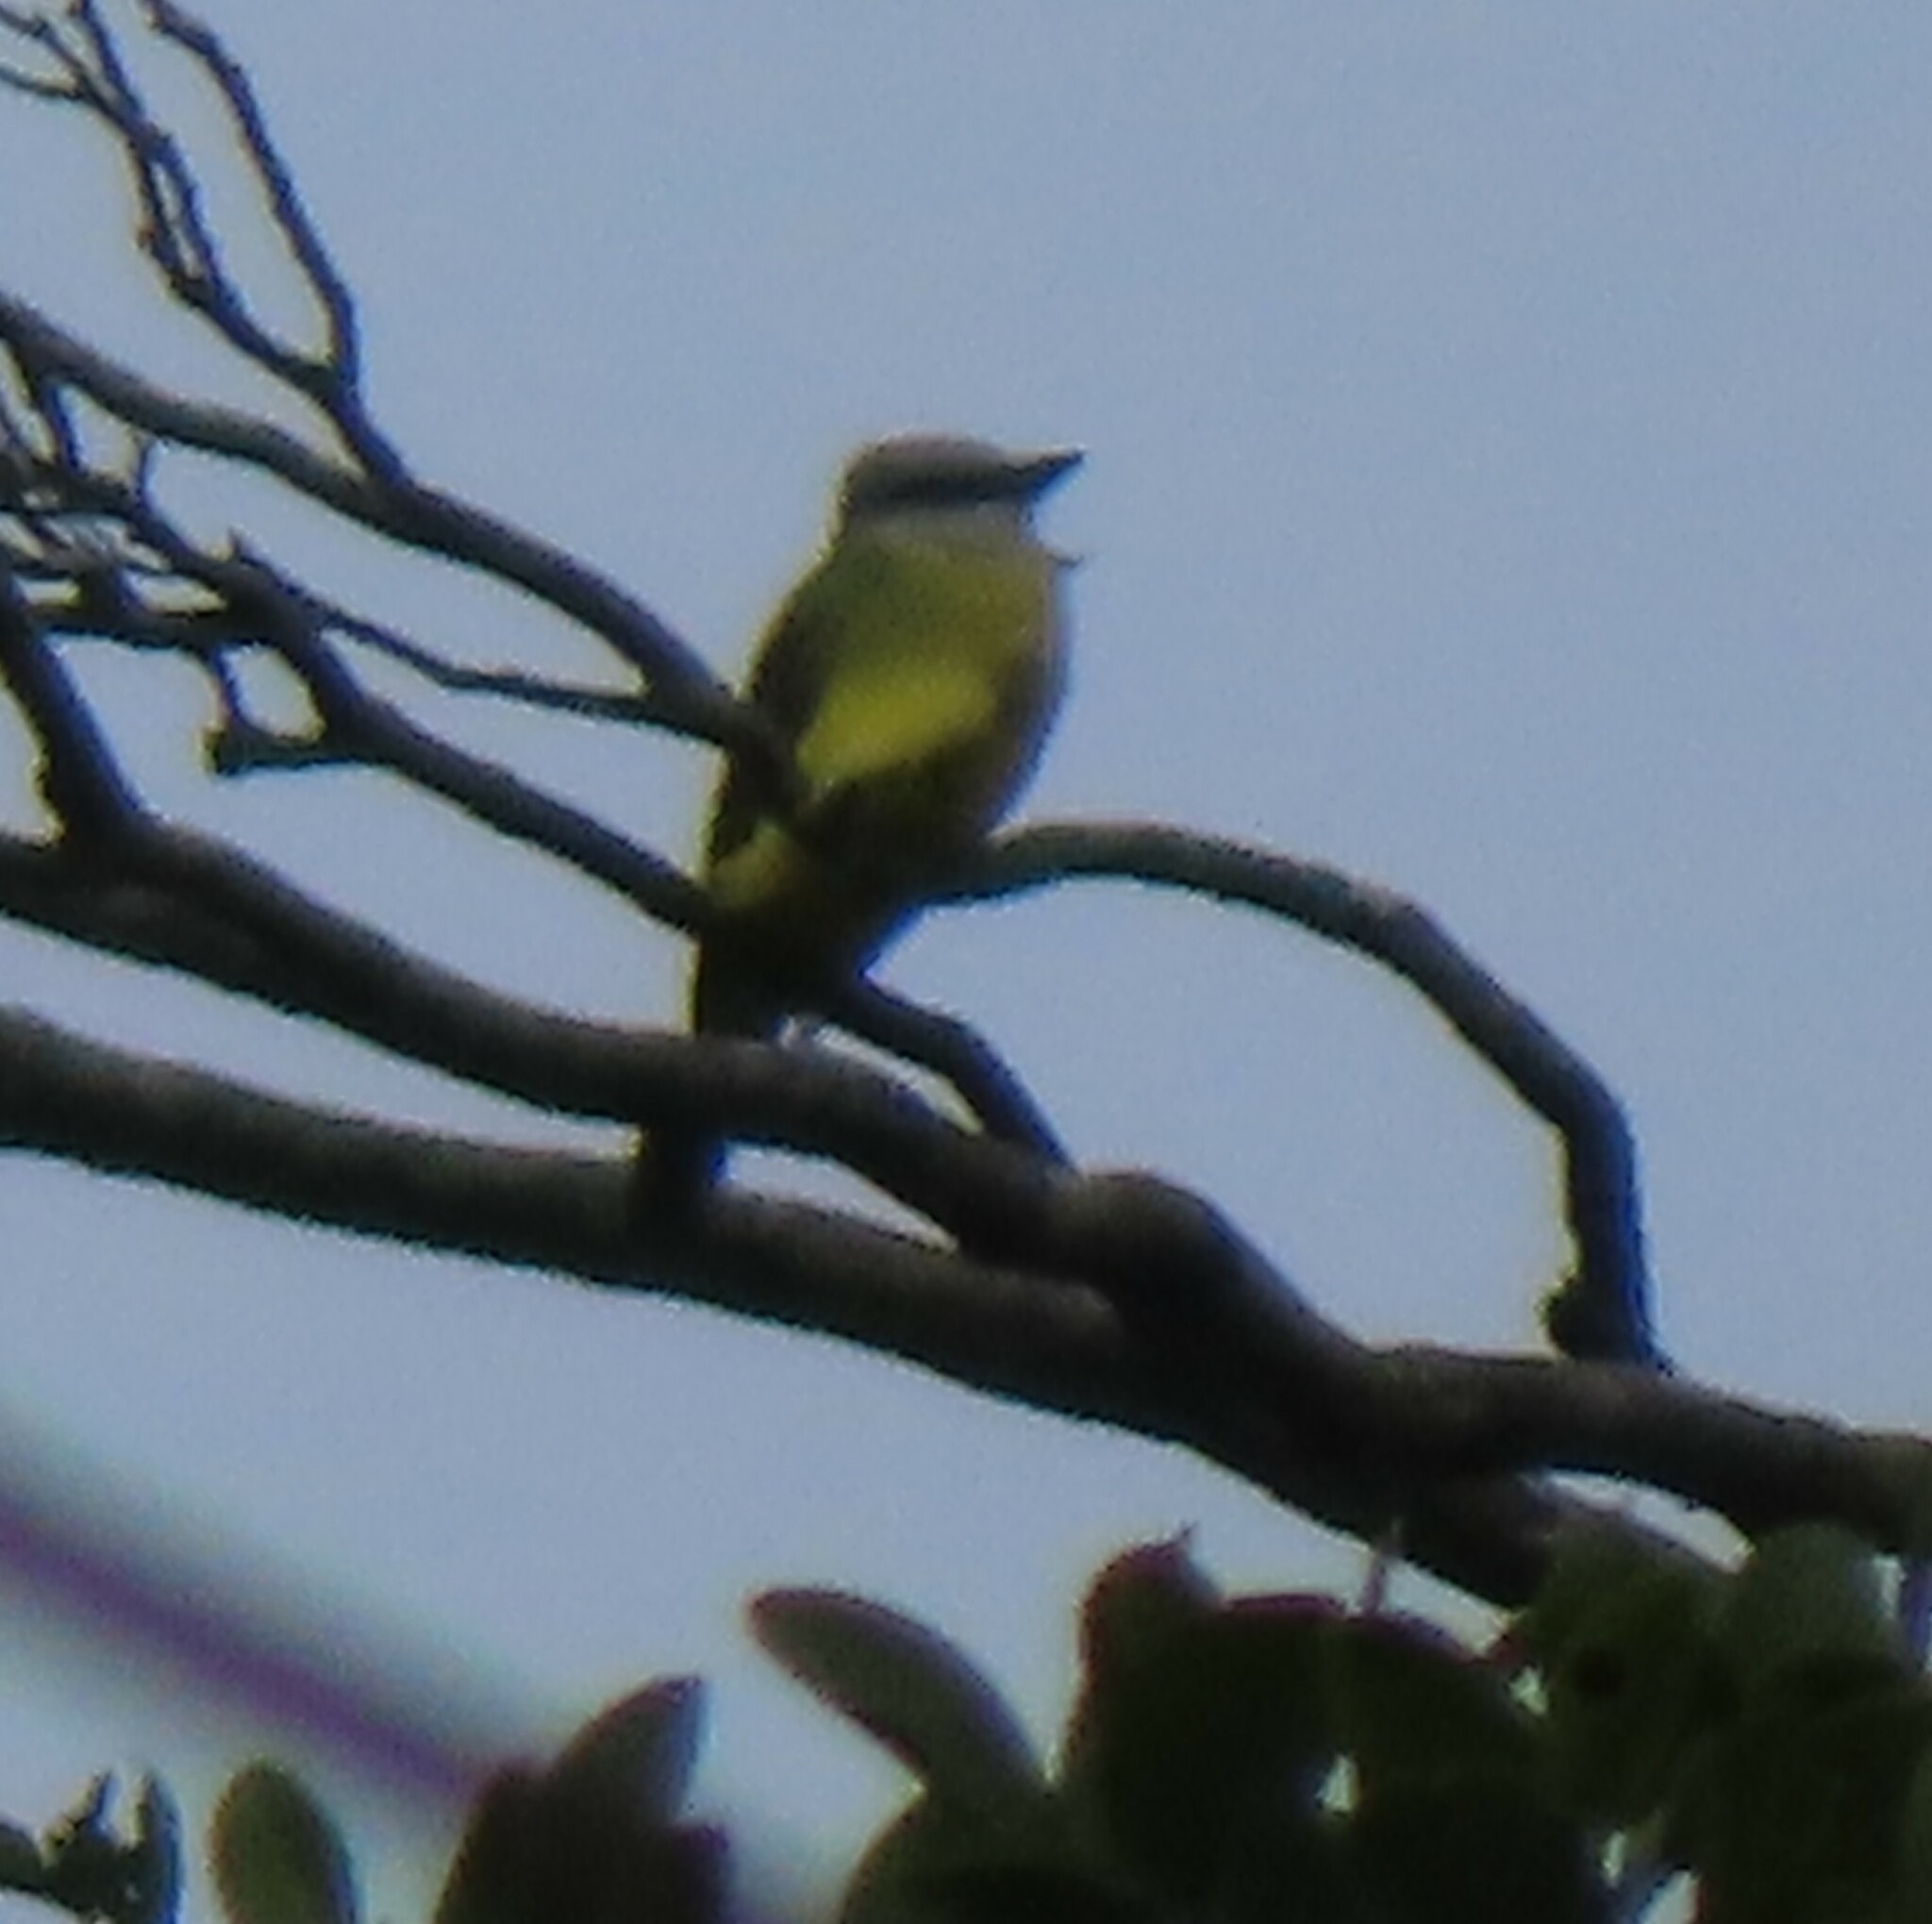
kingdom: Animalia
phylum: Chordata
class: Aves
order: Passeriformes
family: Tyrannidae
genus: Tyrannus
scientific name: Tyrannus melancholicus
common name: Tropical kingbird
